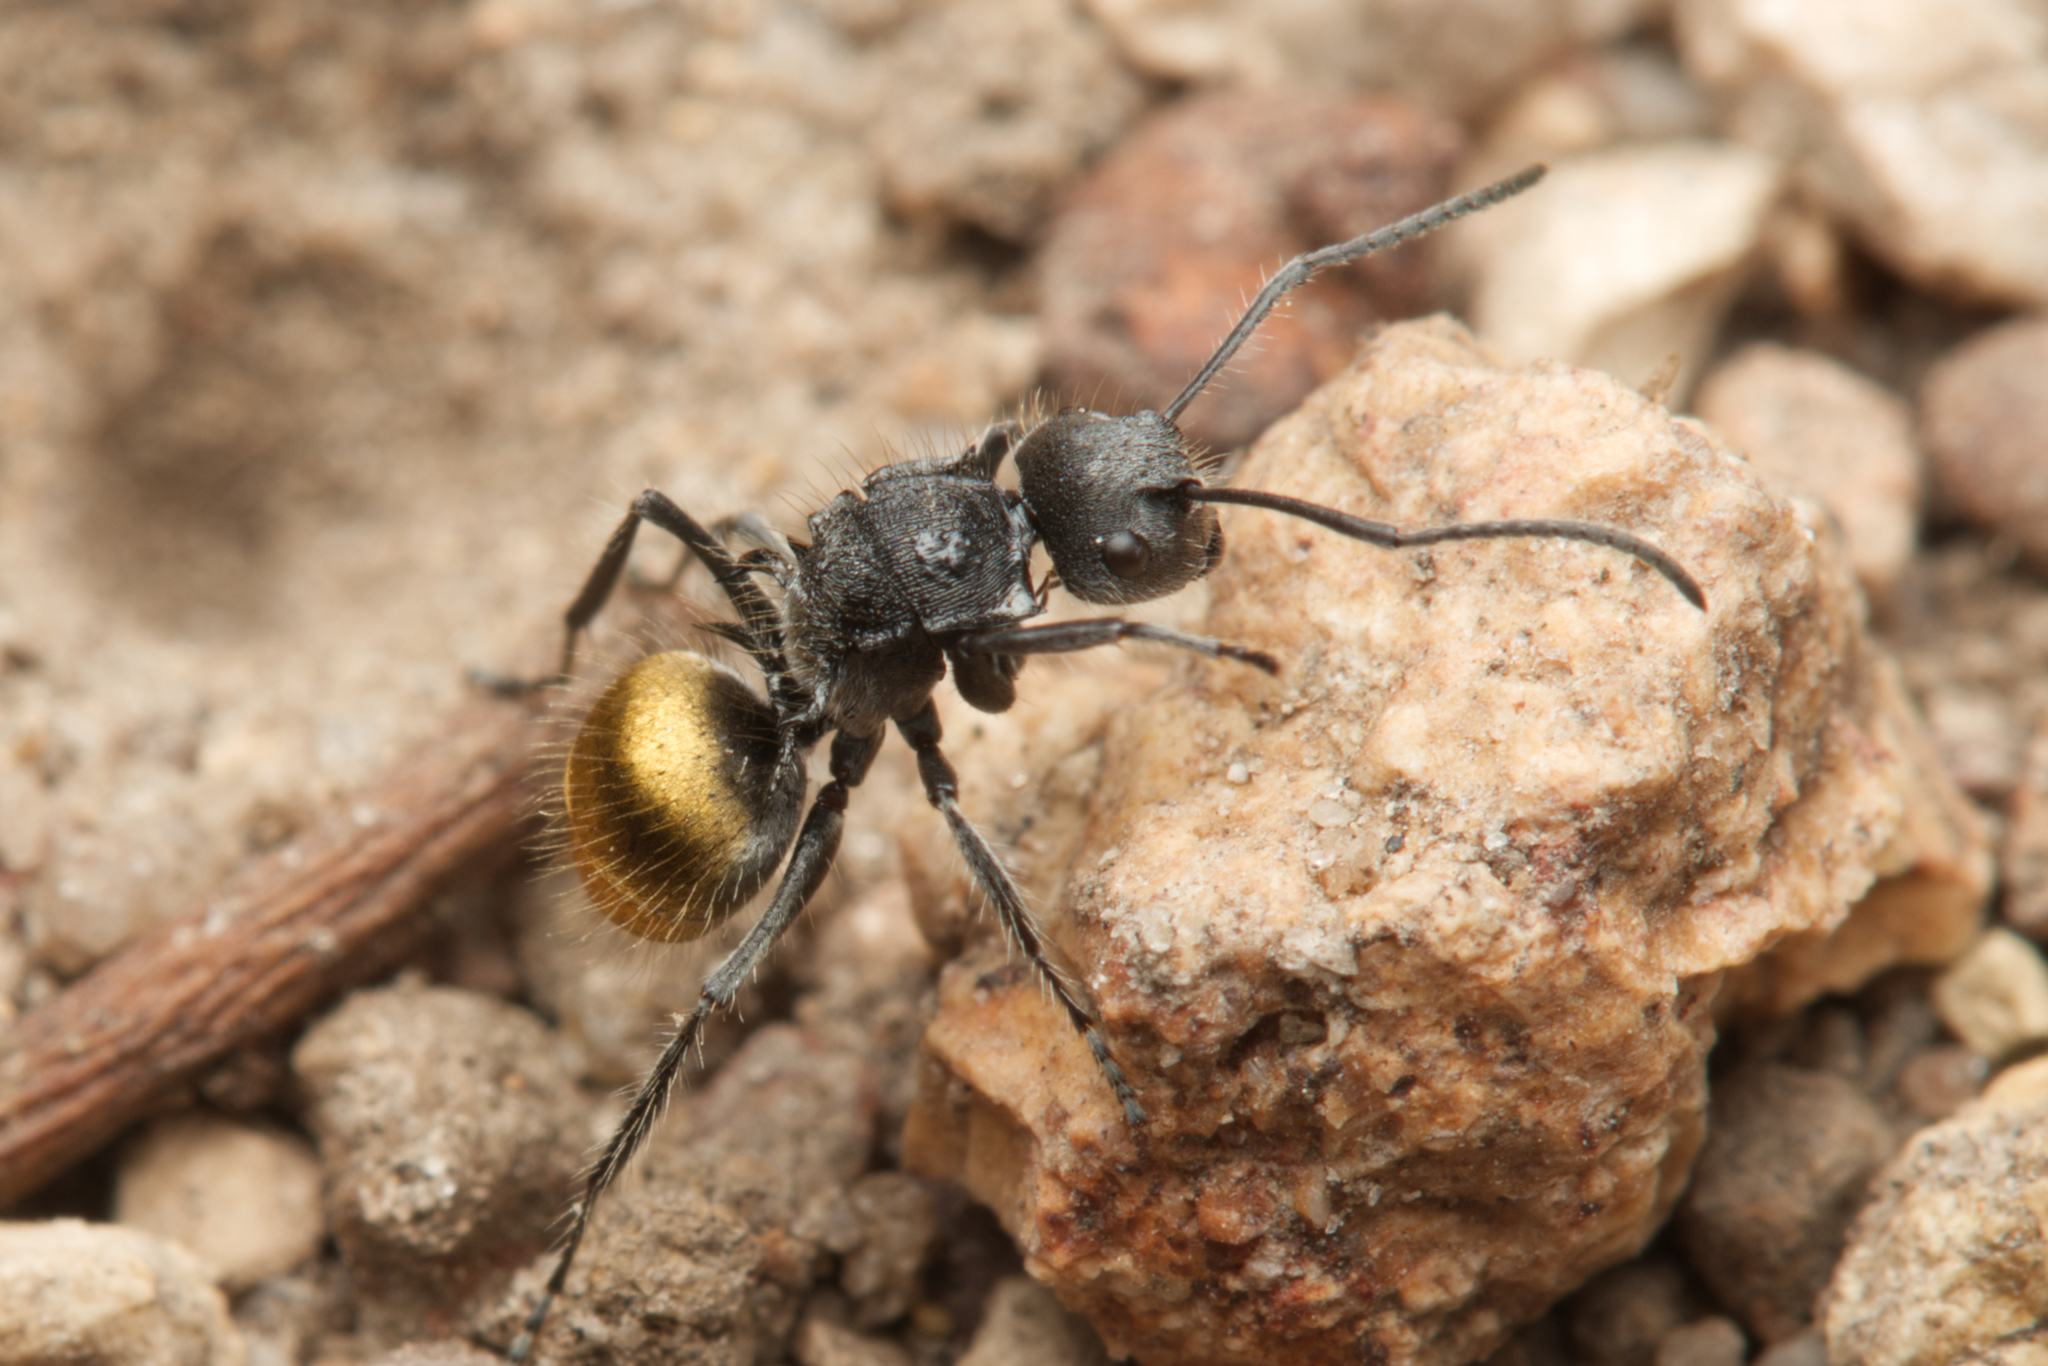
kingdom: Animalia
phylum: Arthropoda
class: Insecta
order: Hymenoptera
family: Formicidae
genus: Polyrhachis
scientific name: Polyrhachis schoopae
